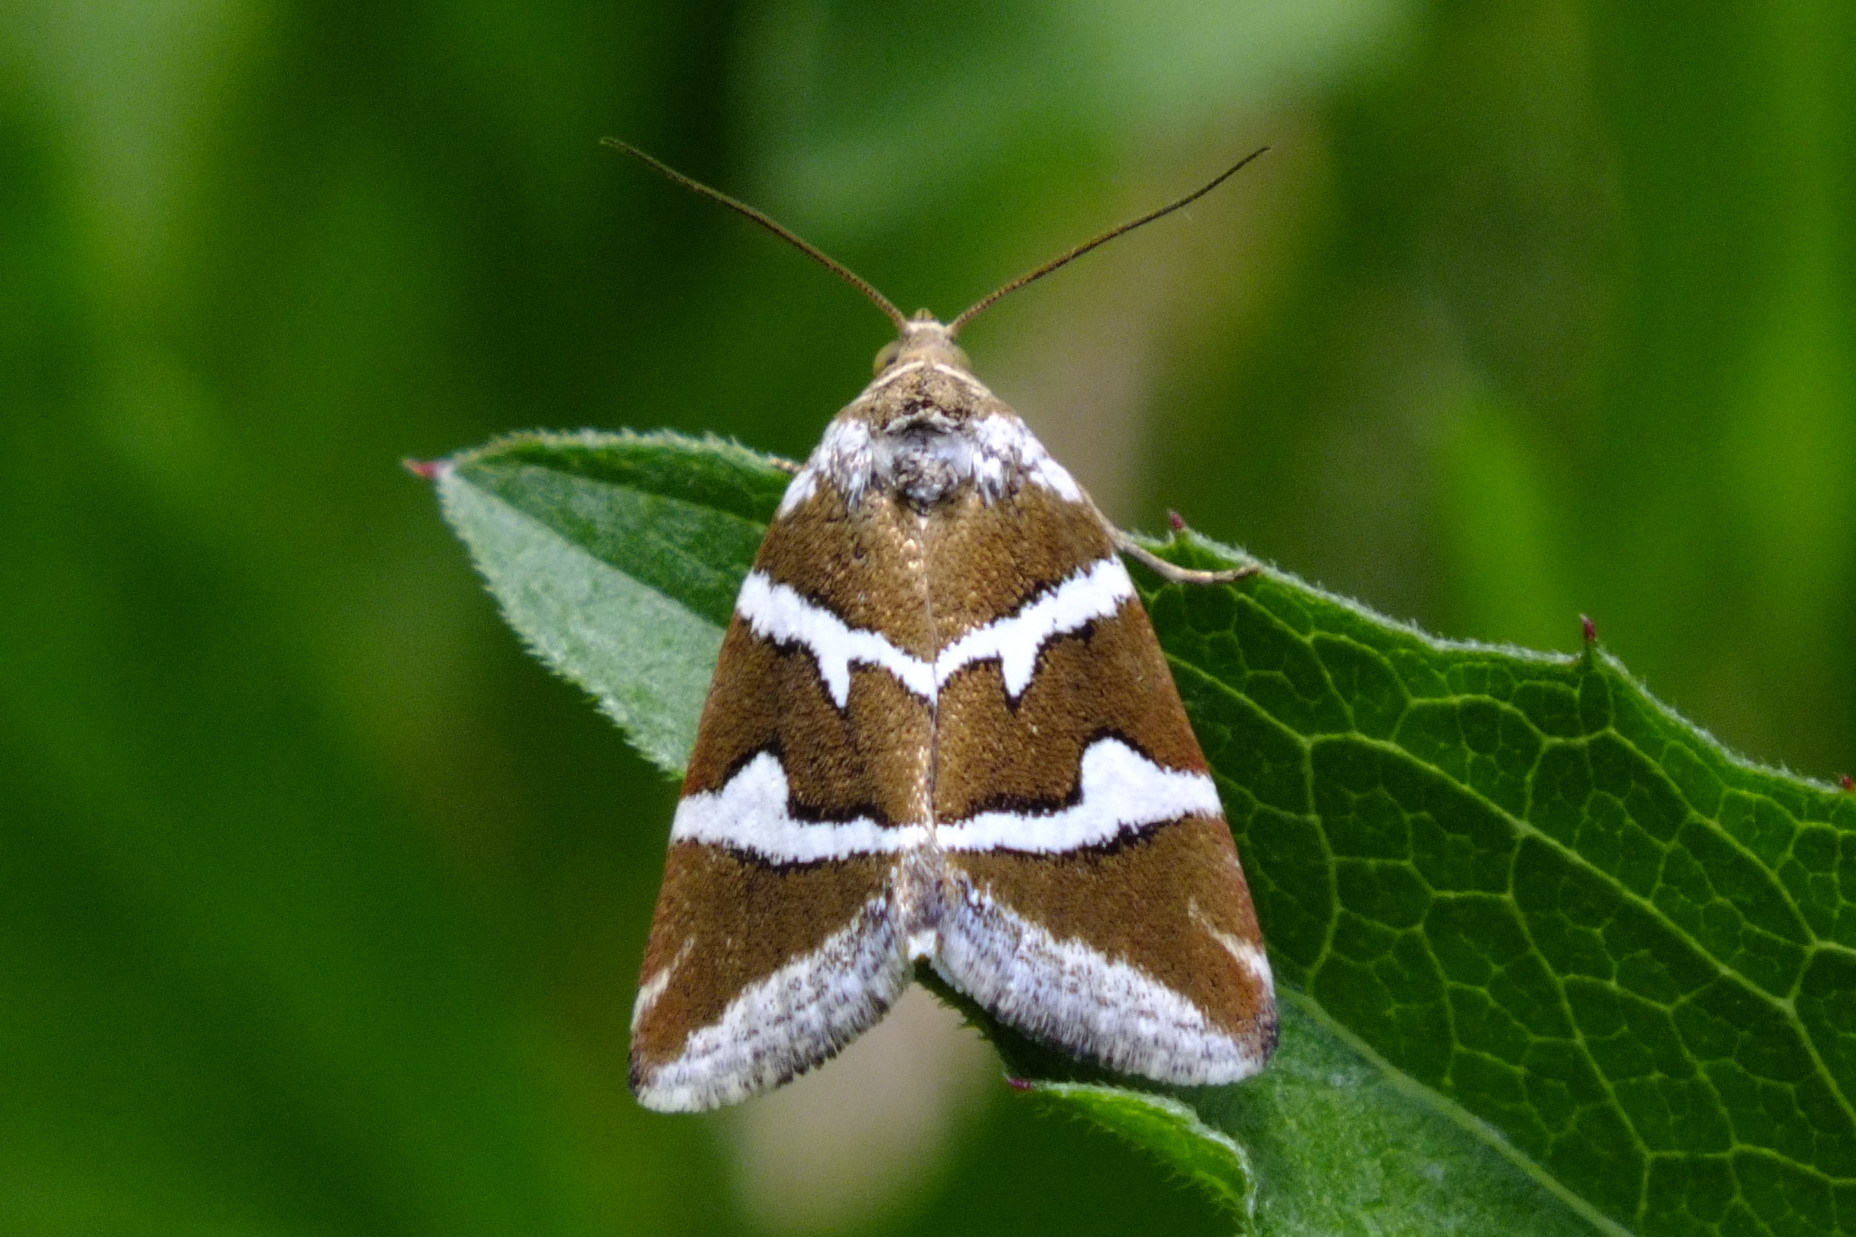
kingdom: Animalia
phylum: Arthropoda
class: Insecta
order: Lepidoptera
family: Noctuidae
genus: Deltote
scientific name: Deltote bankiana
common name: Silver barred
